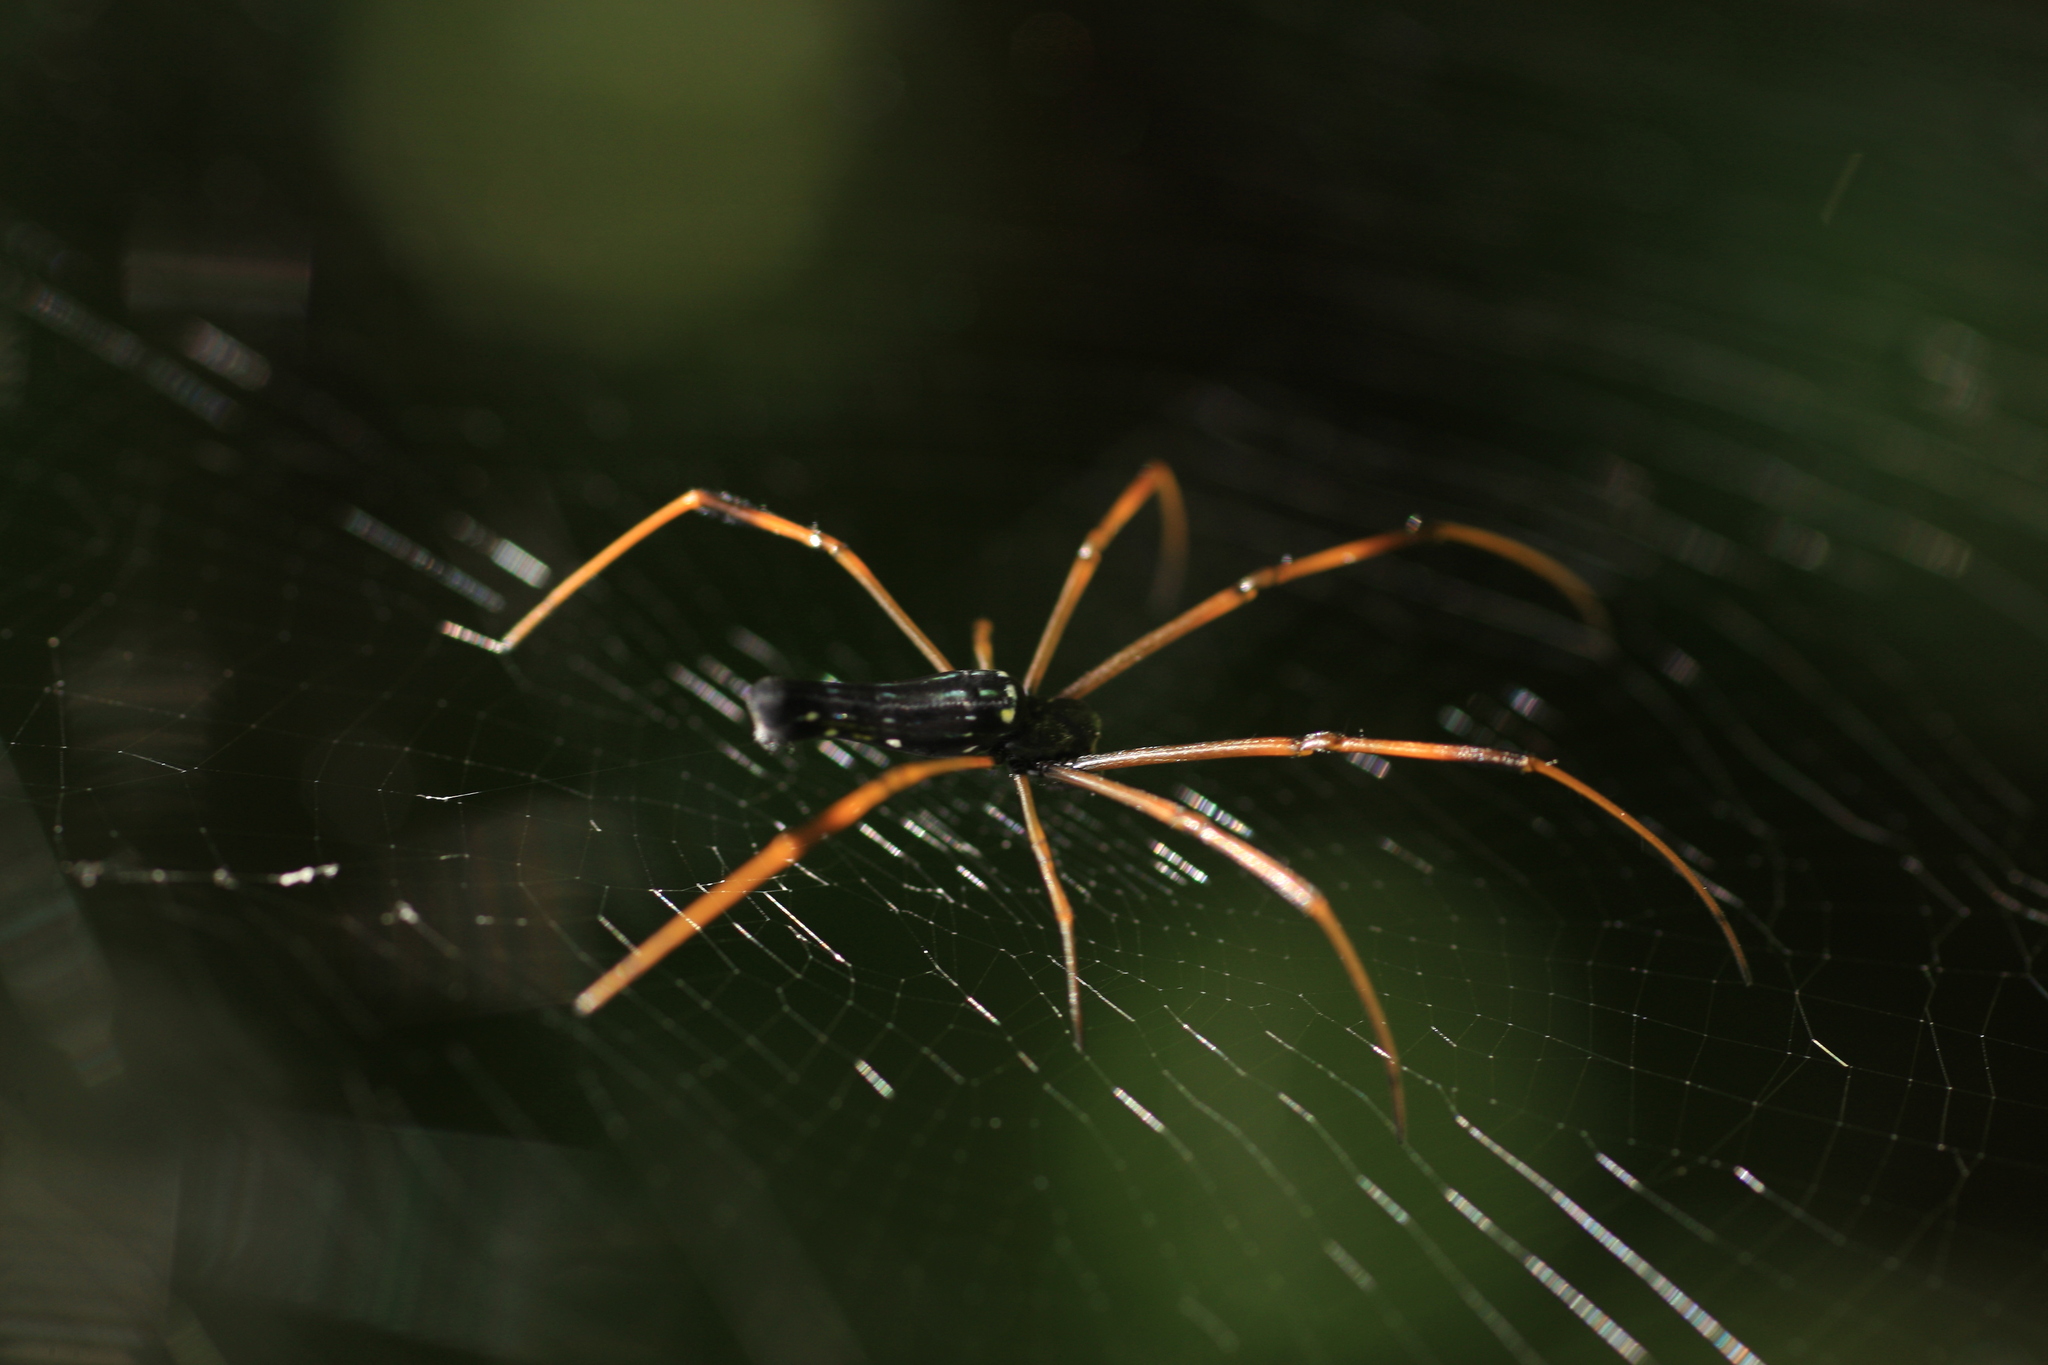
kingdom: Animalia
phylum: Arthropoda
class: Arachnida
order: Araneae
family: Araneidae
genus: Nephila
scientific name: Nephila kuhli
